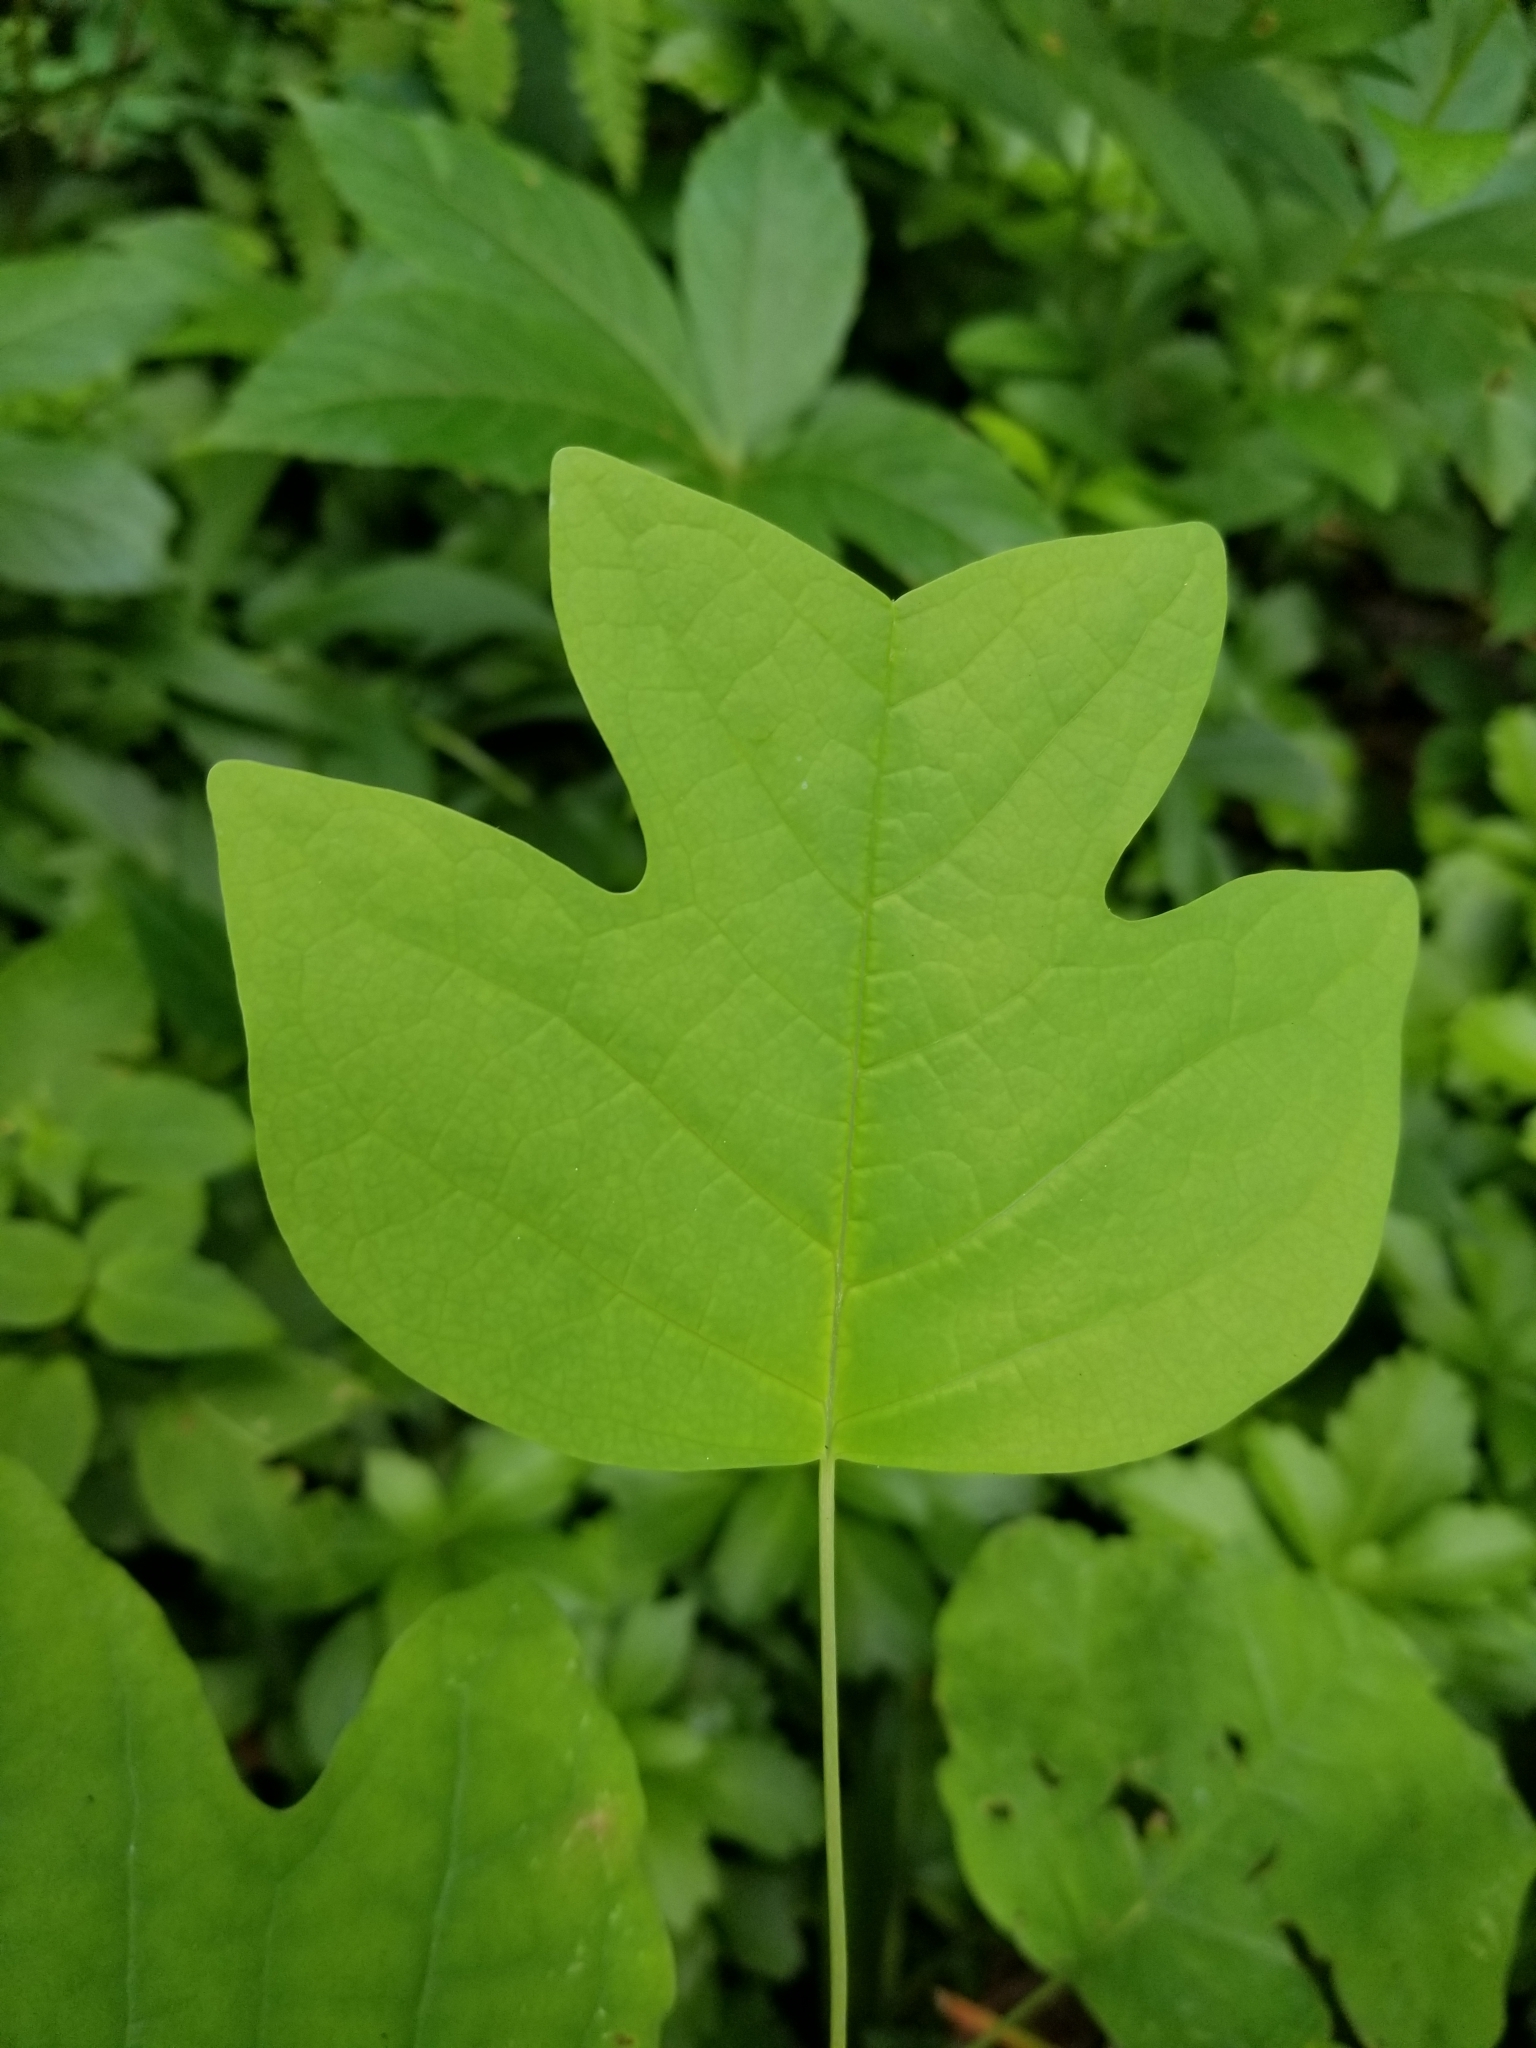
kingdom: Plantae
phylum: Tracheophyta
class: Magnoliopsida
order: Magnoliales
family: Magnoliaceae
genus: Liriodendron
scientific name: Liriodendron tulipifera
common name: Tulip tree
